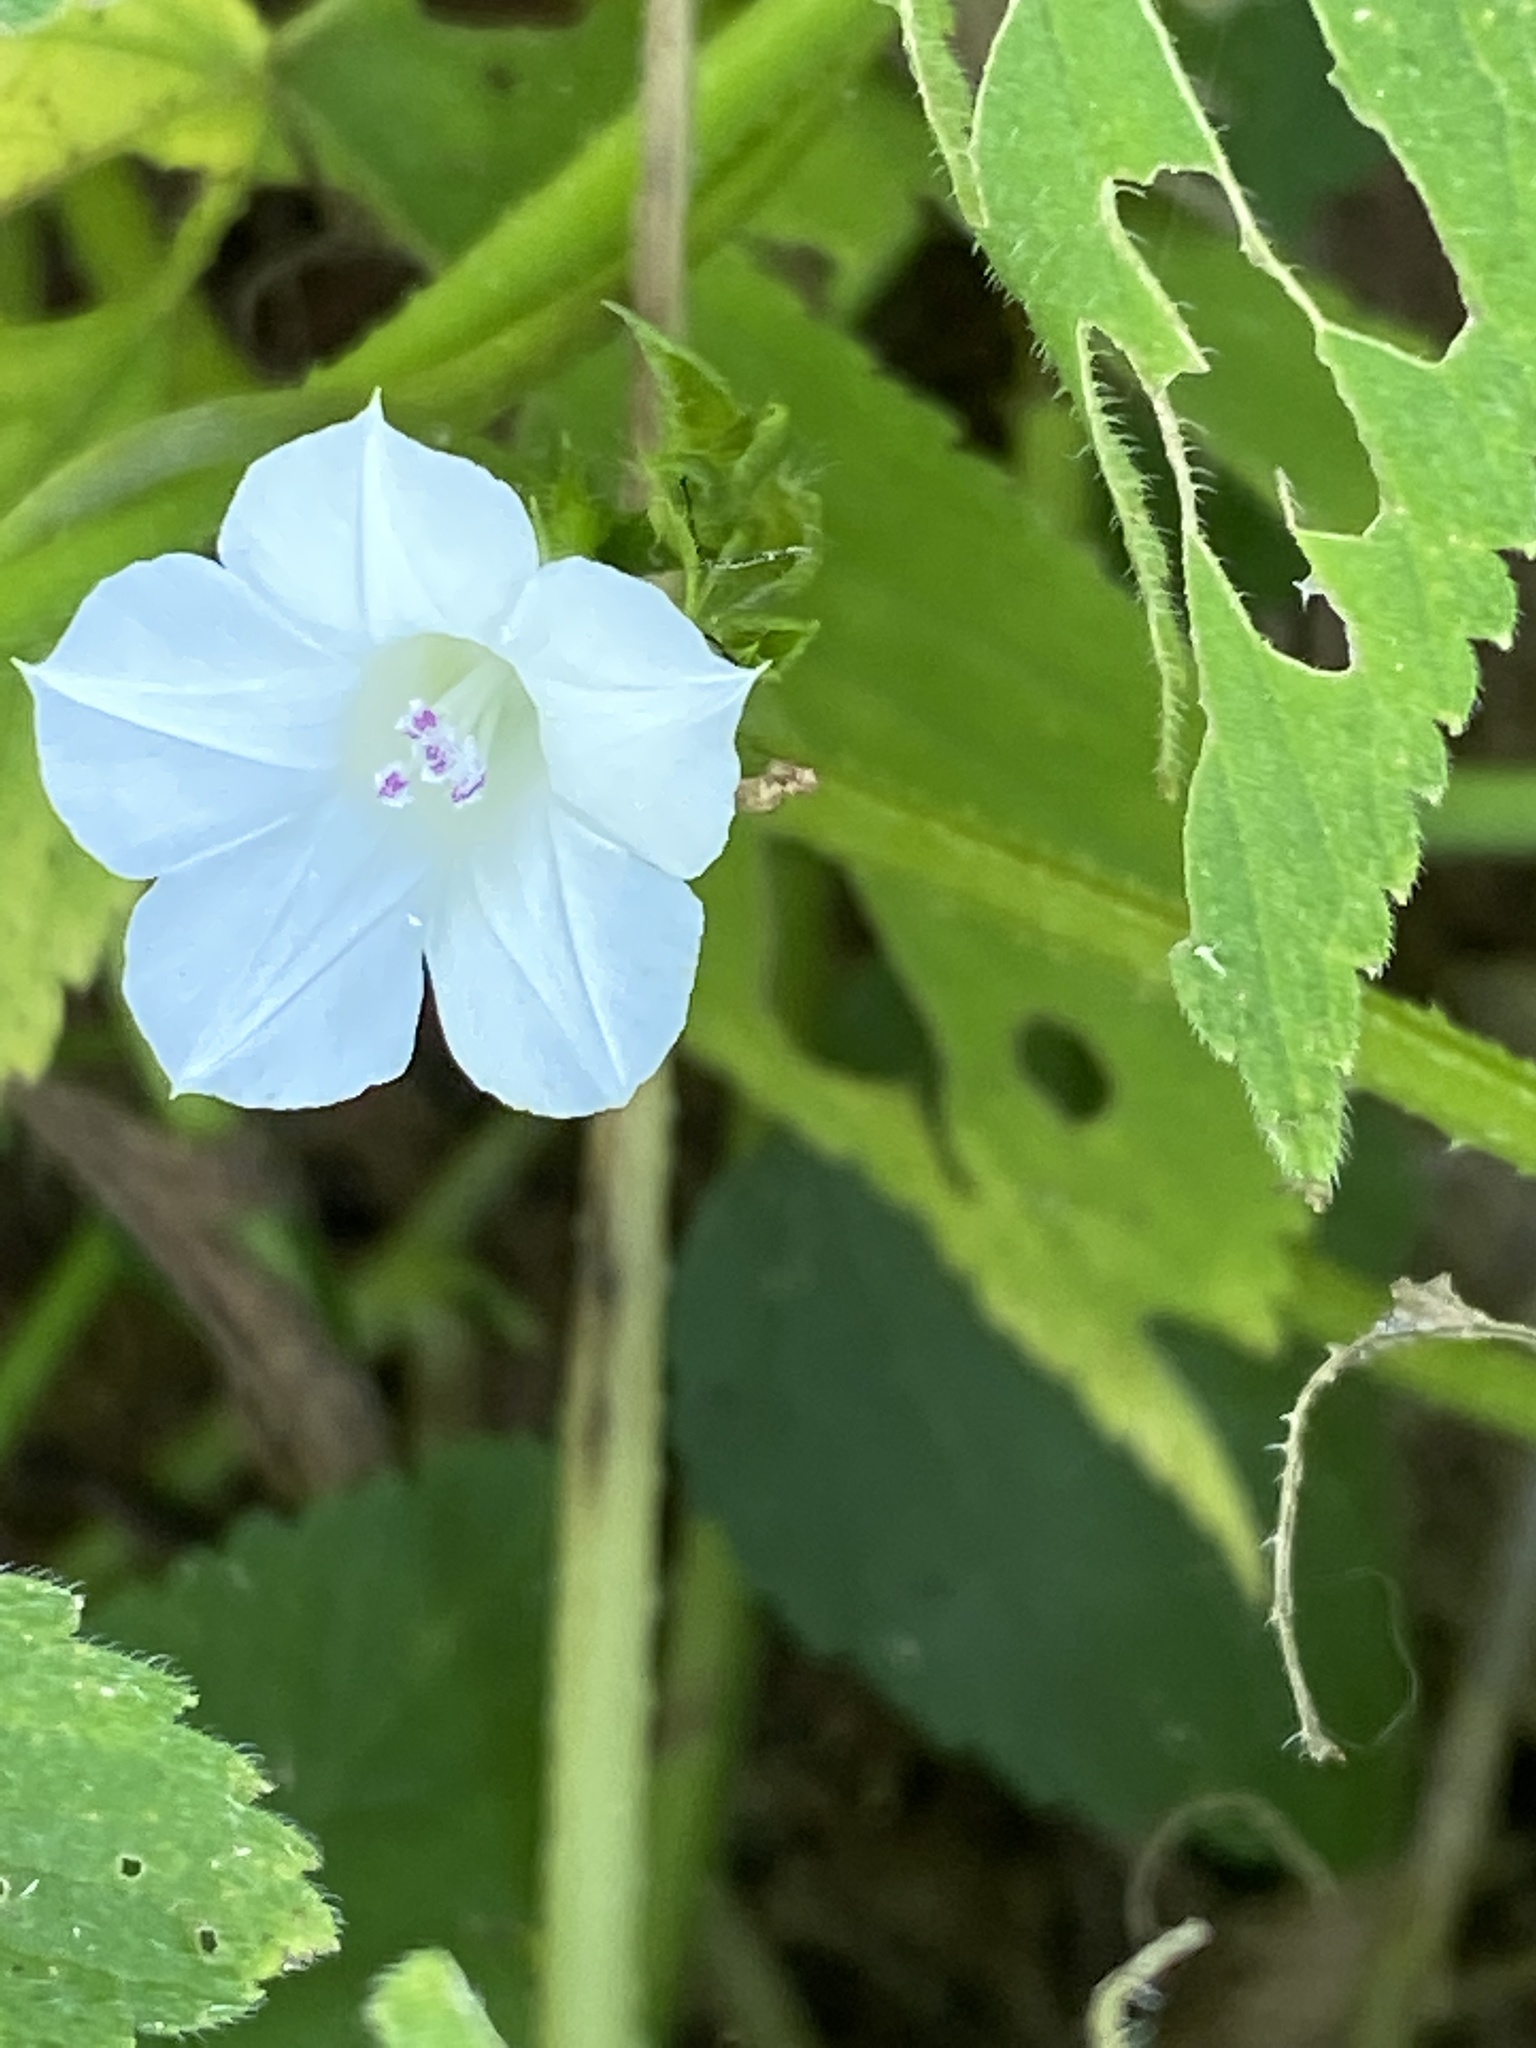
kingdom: Plantae
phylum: Tracheophyta
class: Magnoliopsida
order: Solanales
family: Convolvulaceae
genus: Ipomoea
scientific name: Ipomoea lacunosa
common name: White morning-glory
